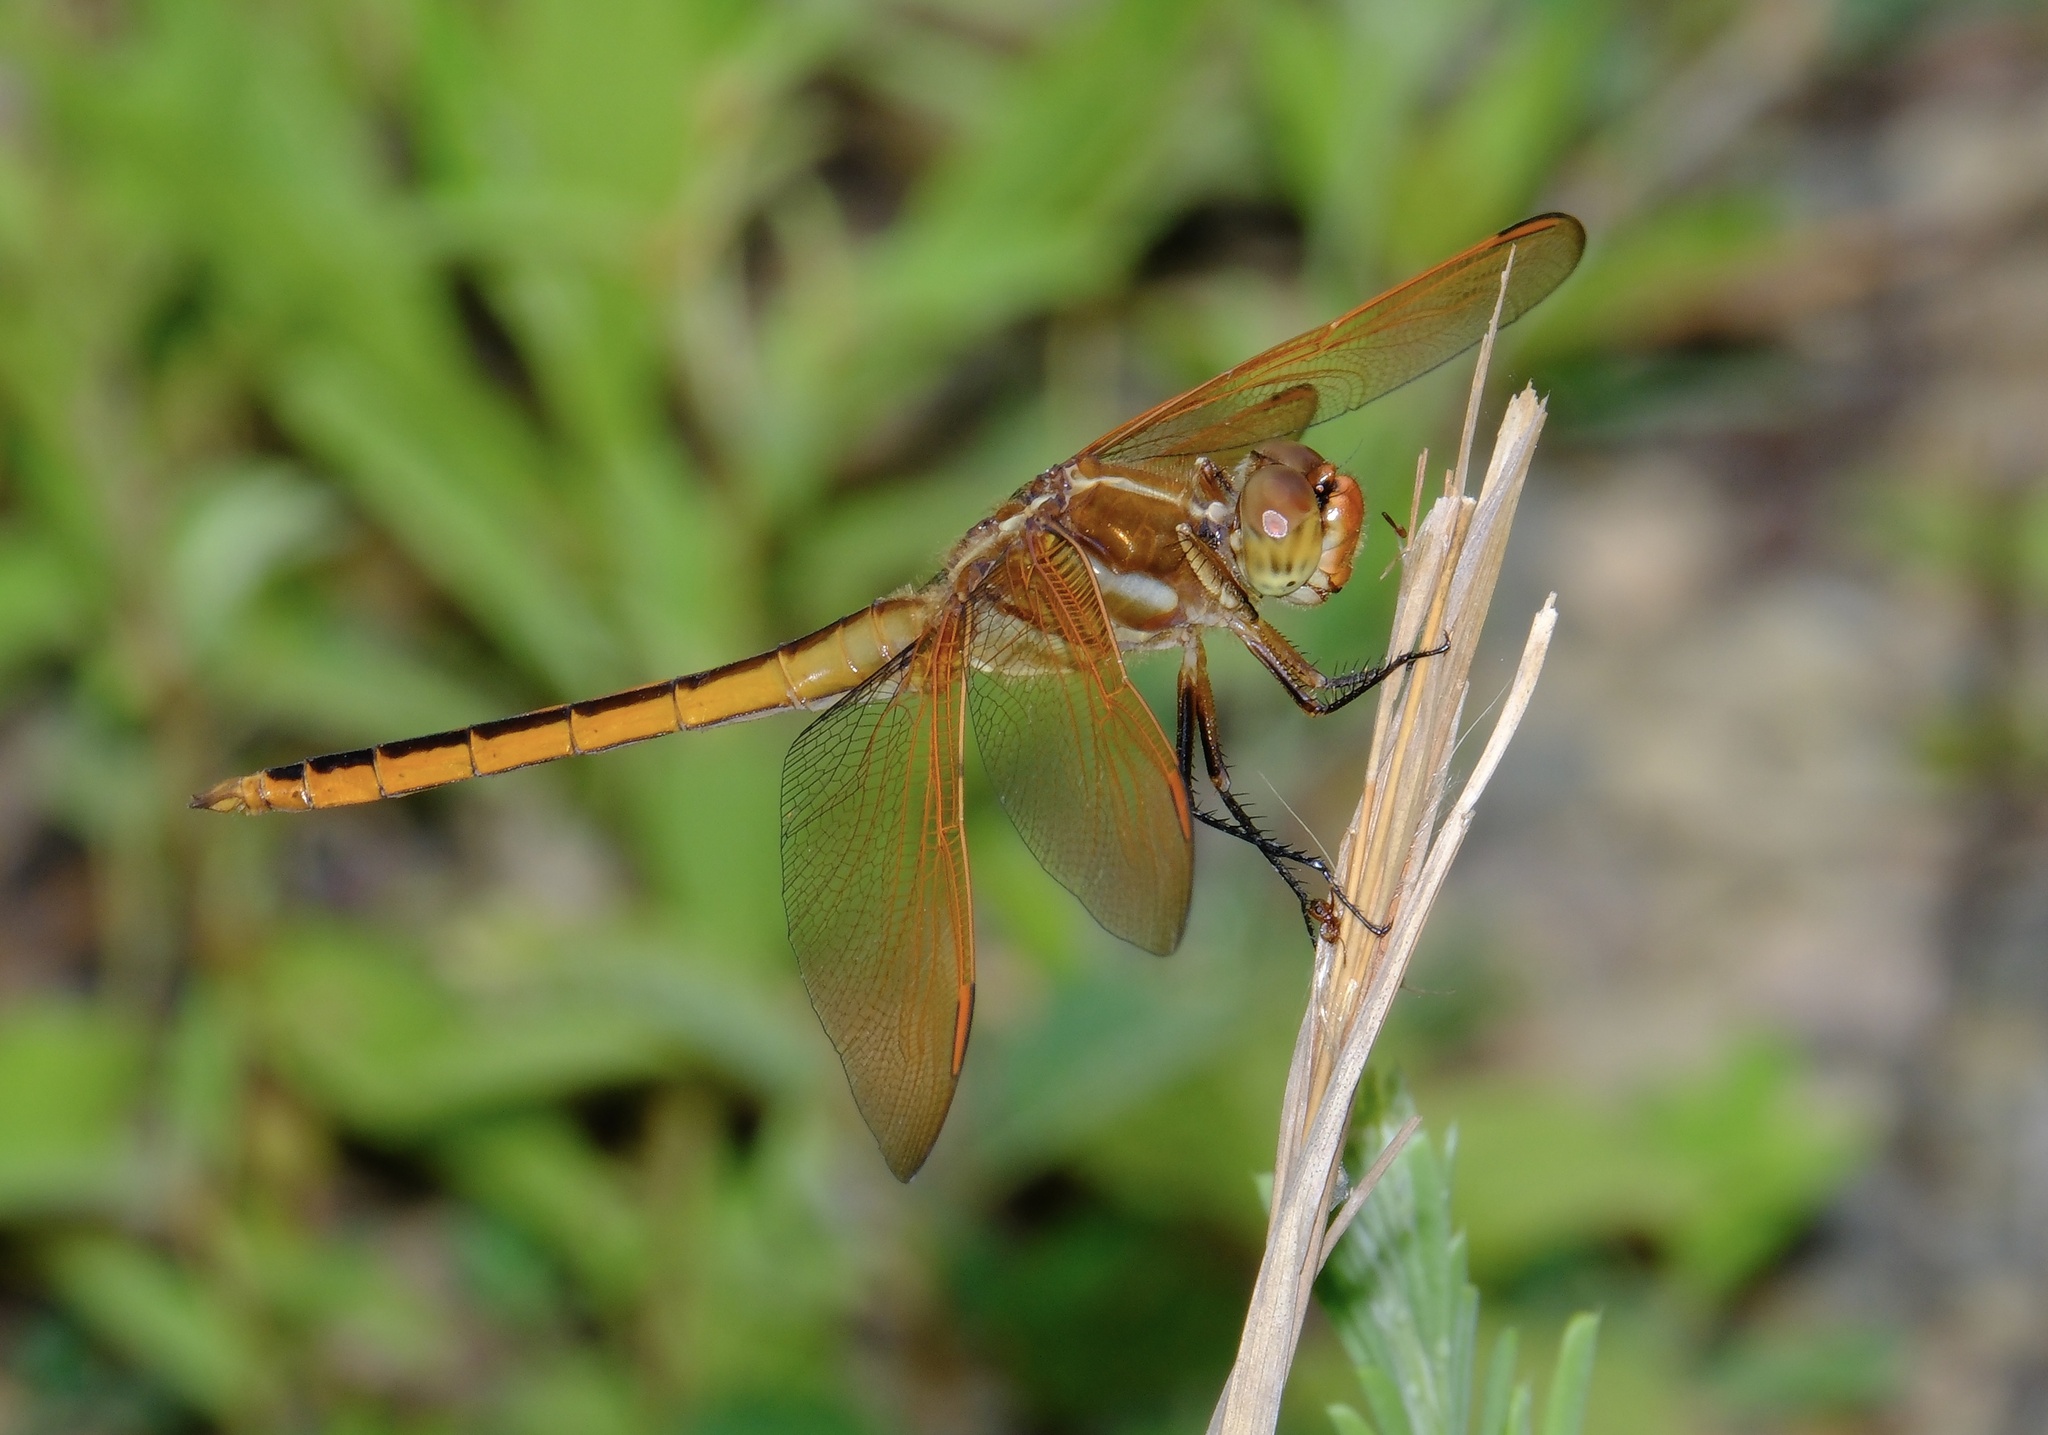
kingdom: Animalia
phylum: Arthropoda
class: Insecta
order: Odonata
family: Libellulidae
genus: Libellula
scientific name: Libellula auripennis
